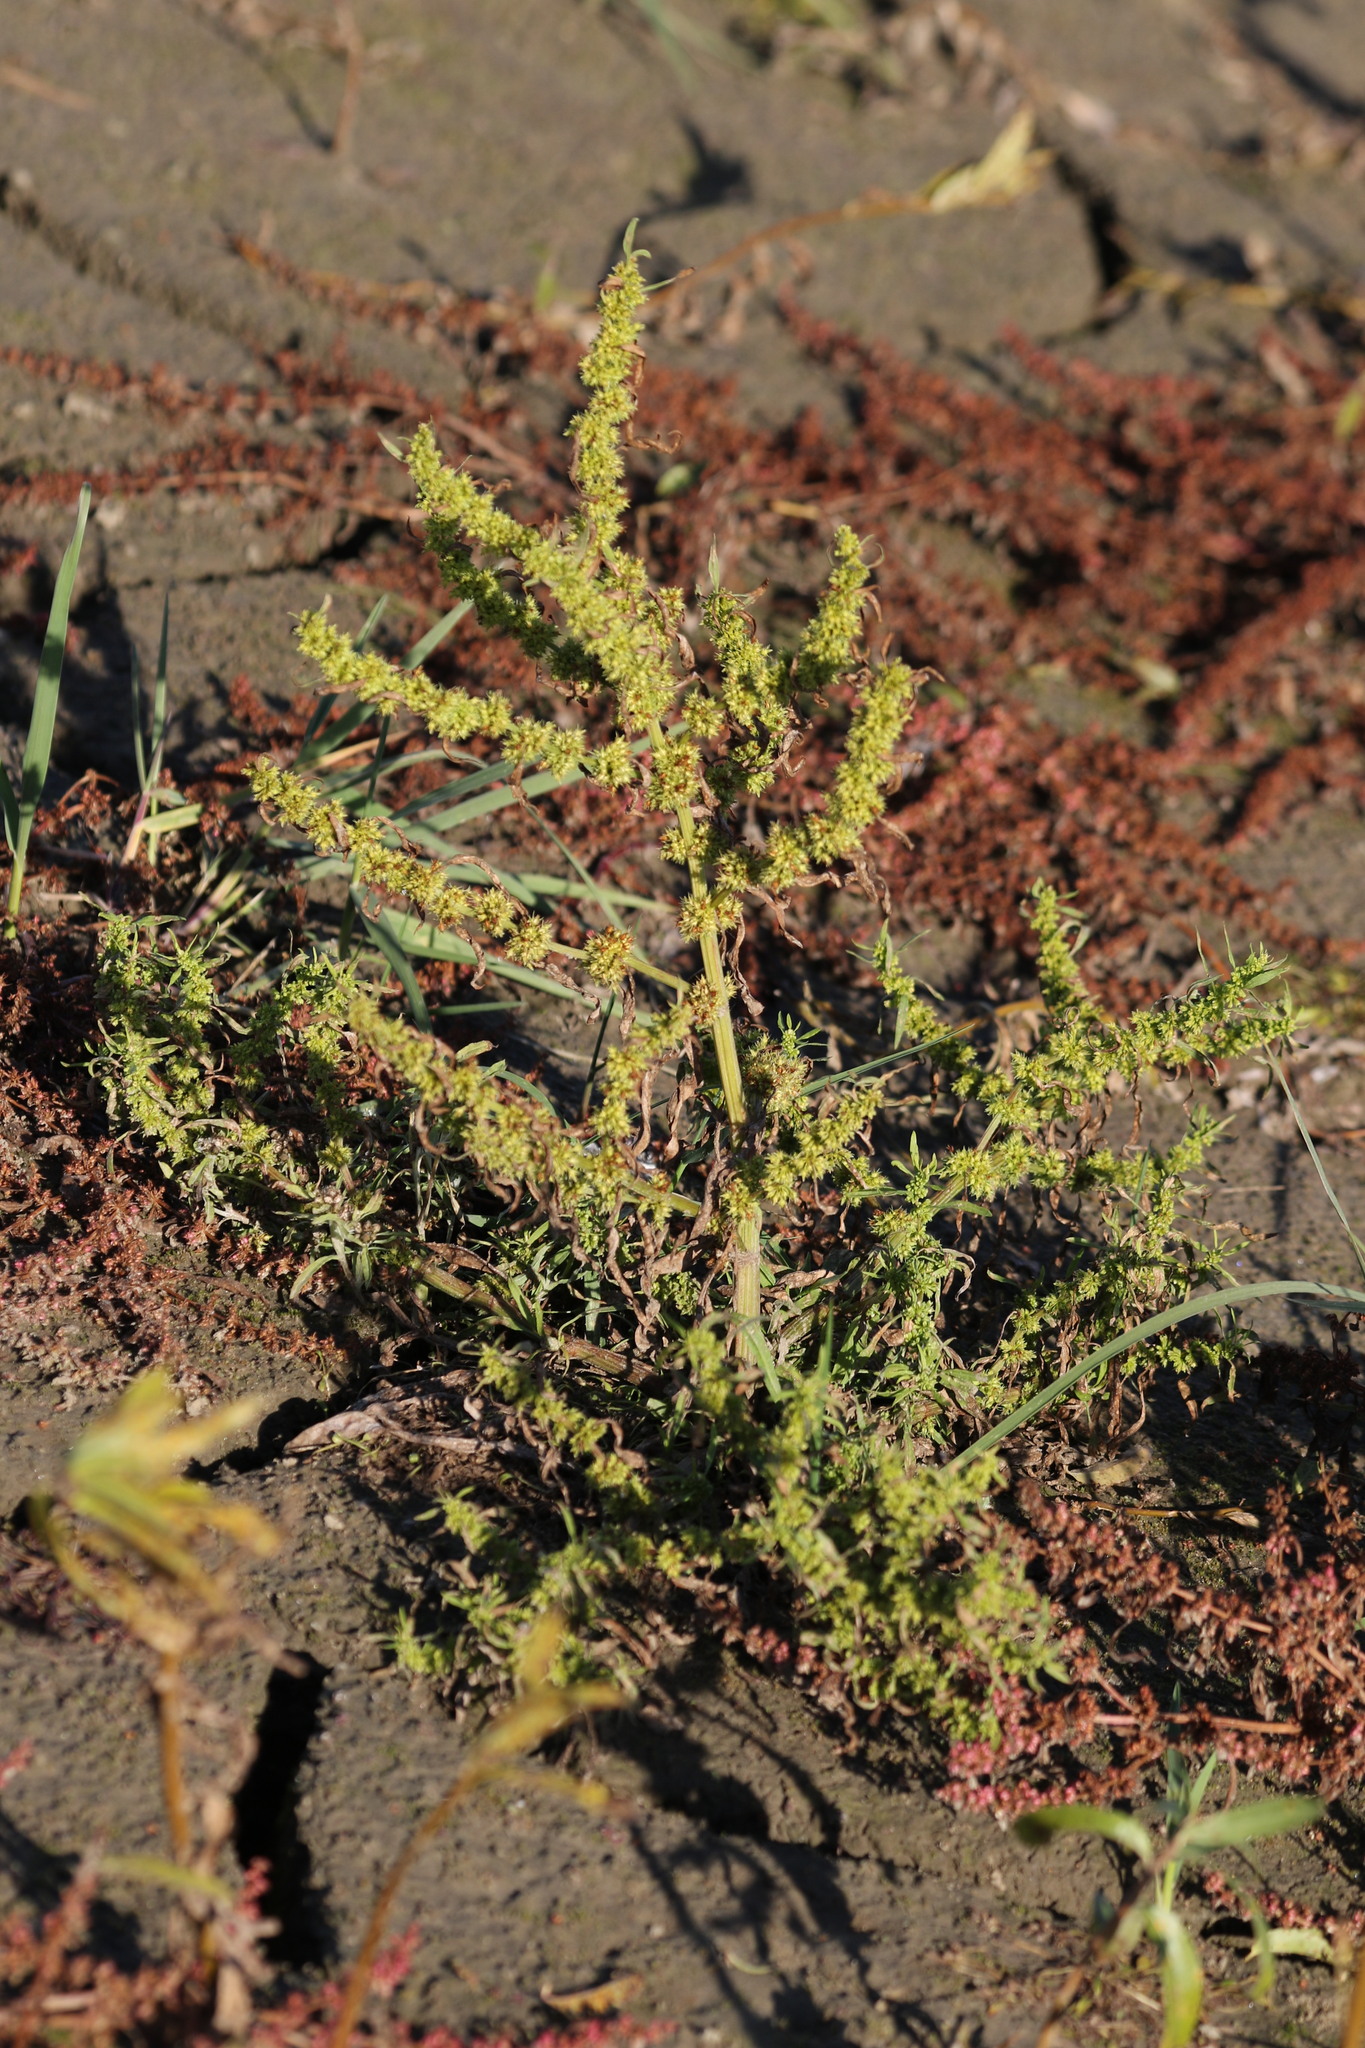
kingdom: Plantae
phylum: Tracheophyta
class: Magnoliopsida
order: Caryophyllales
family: Polygonaceae
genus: Rumex
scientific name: Rumex maritimus
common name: Golden dock
